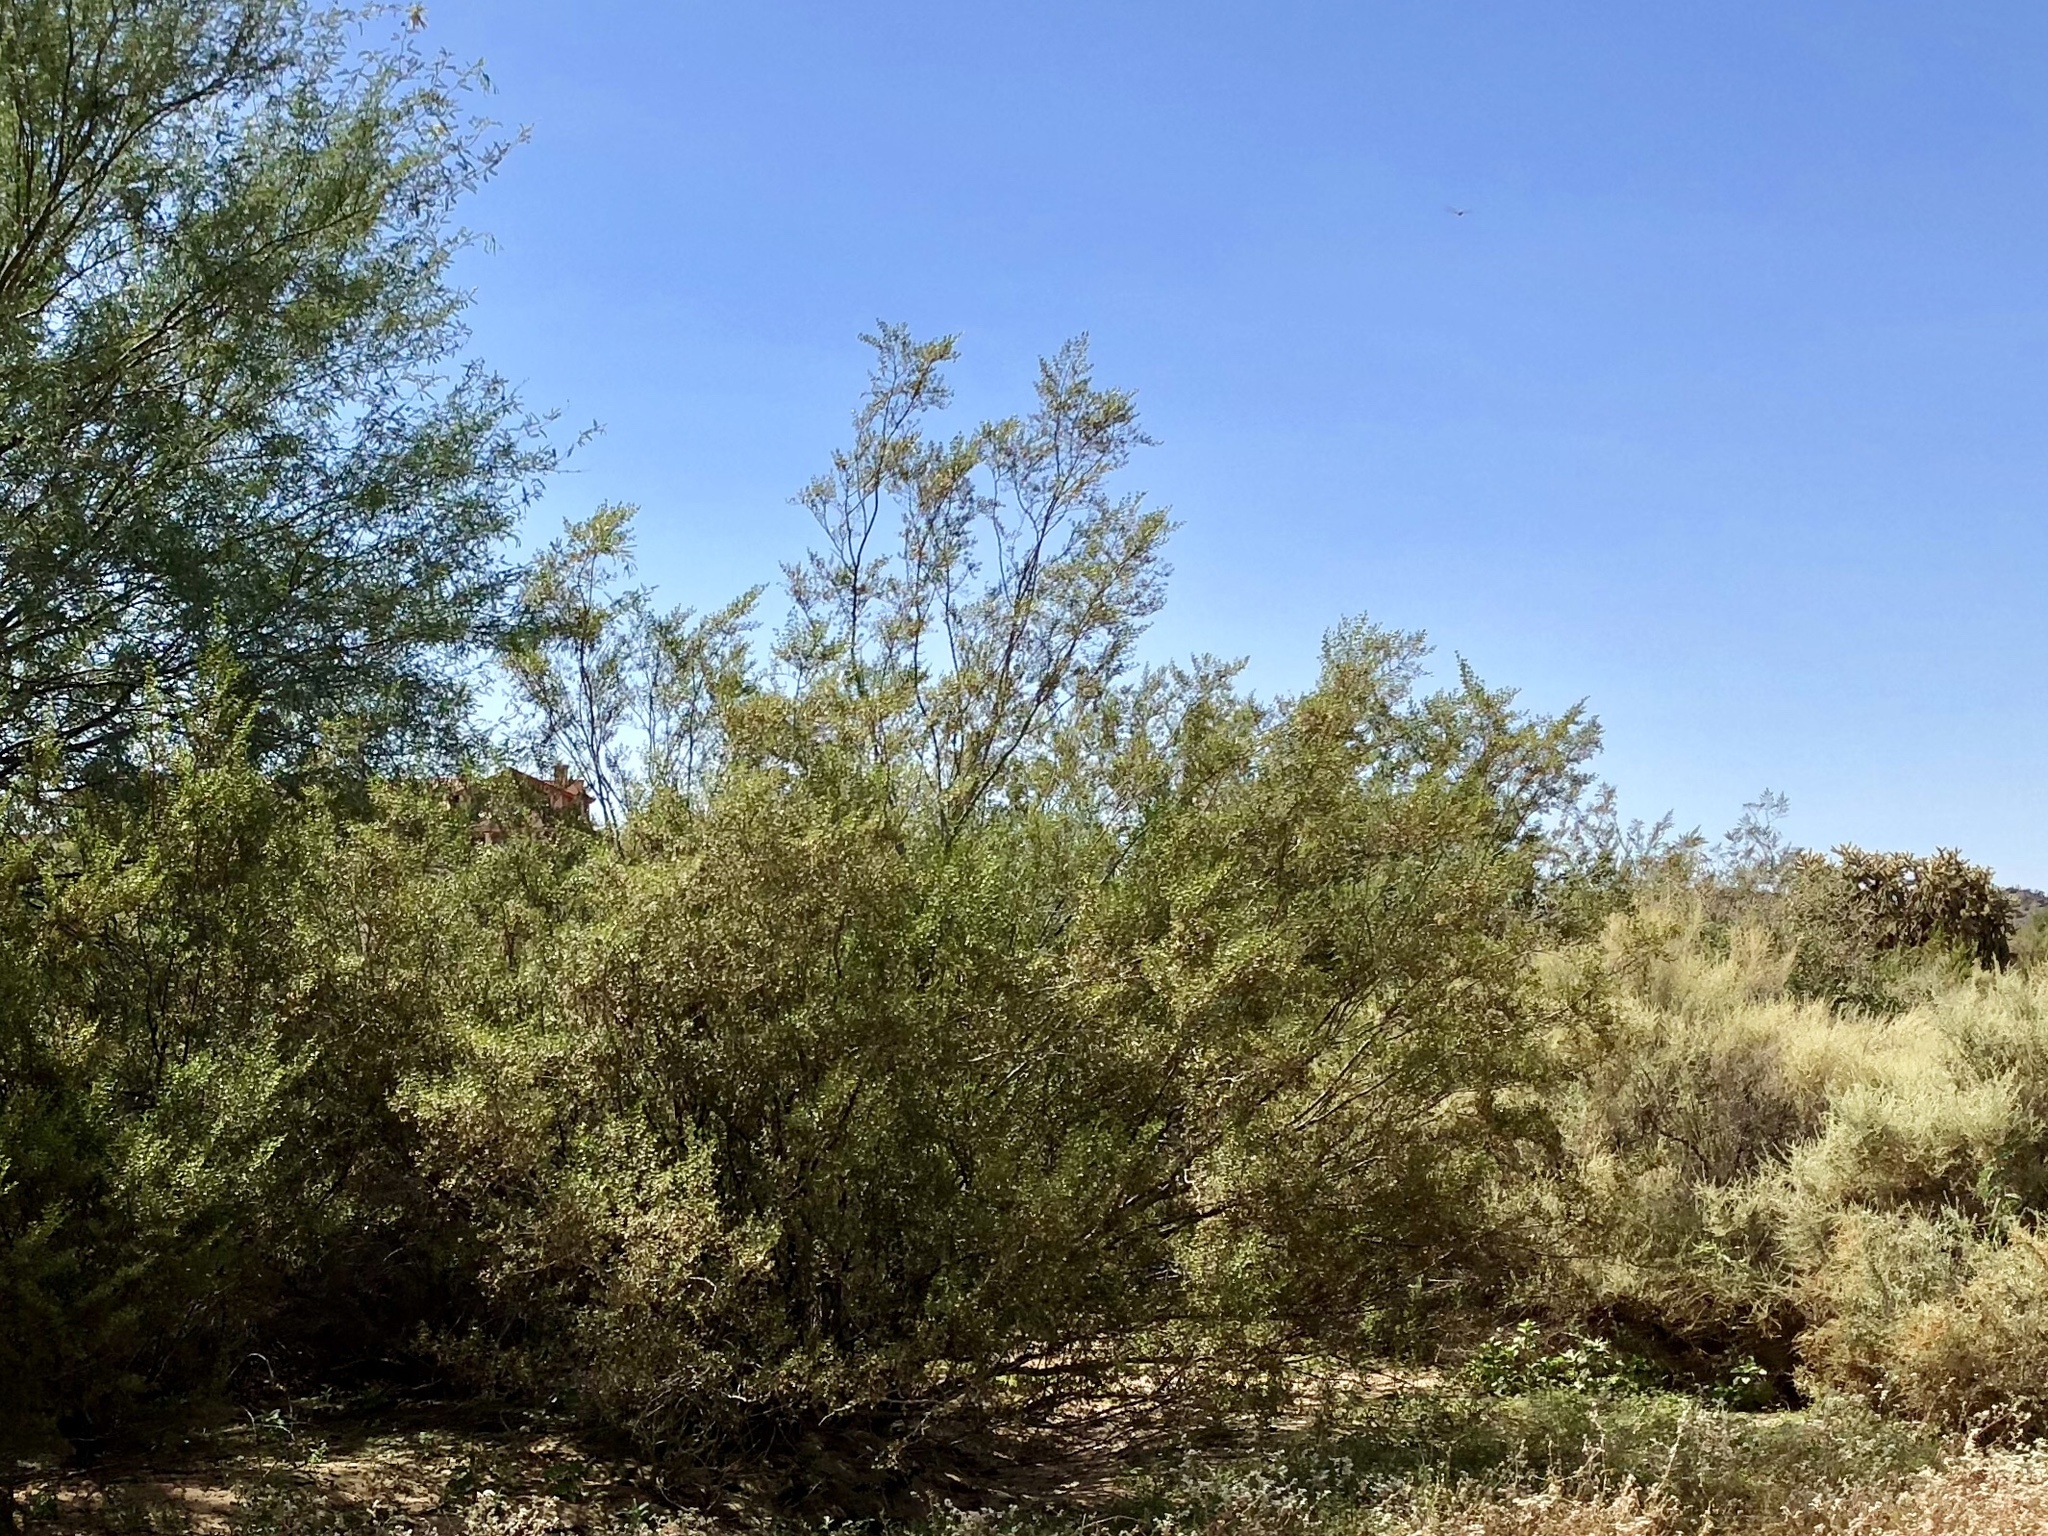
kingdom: Plantae
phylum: Tracheophyta
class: Magnoliopsida
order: Zygophyllales
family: Zygophyllaceae
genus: Larrea
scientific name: Larrea tridentata
